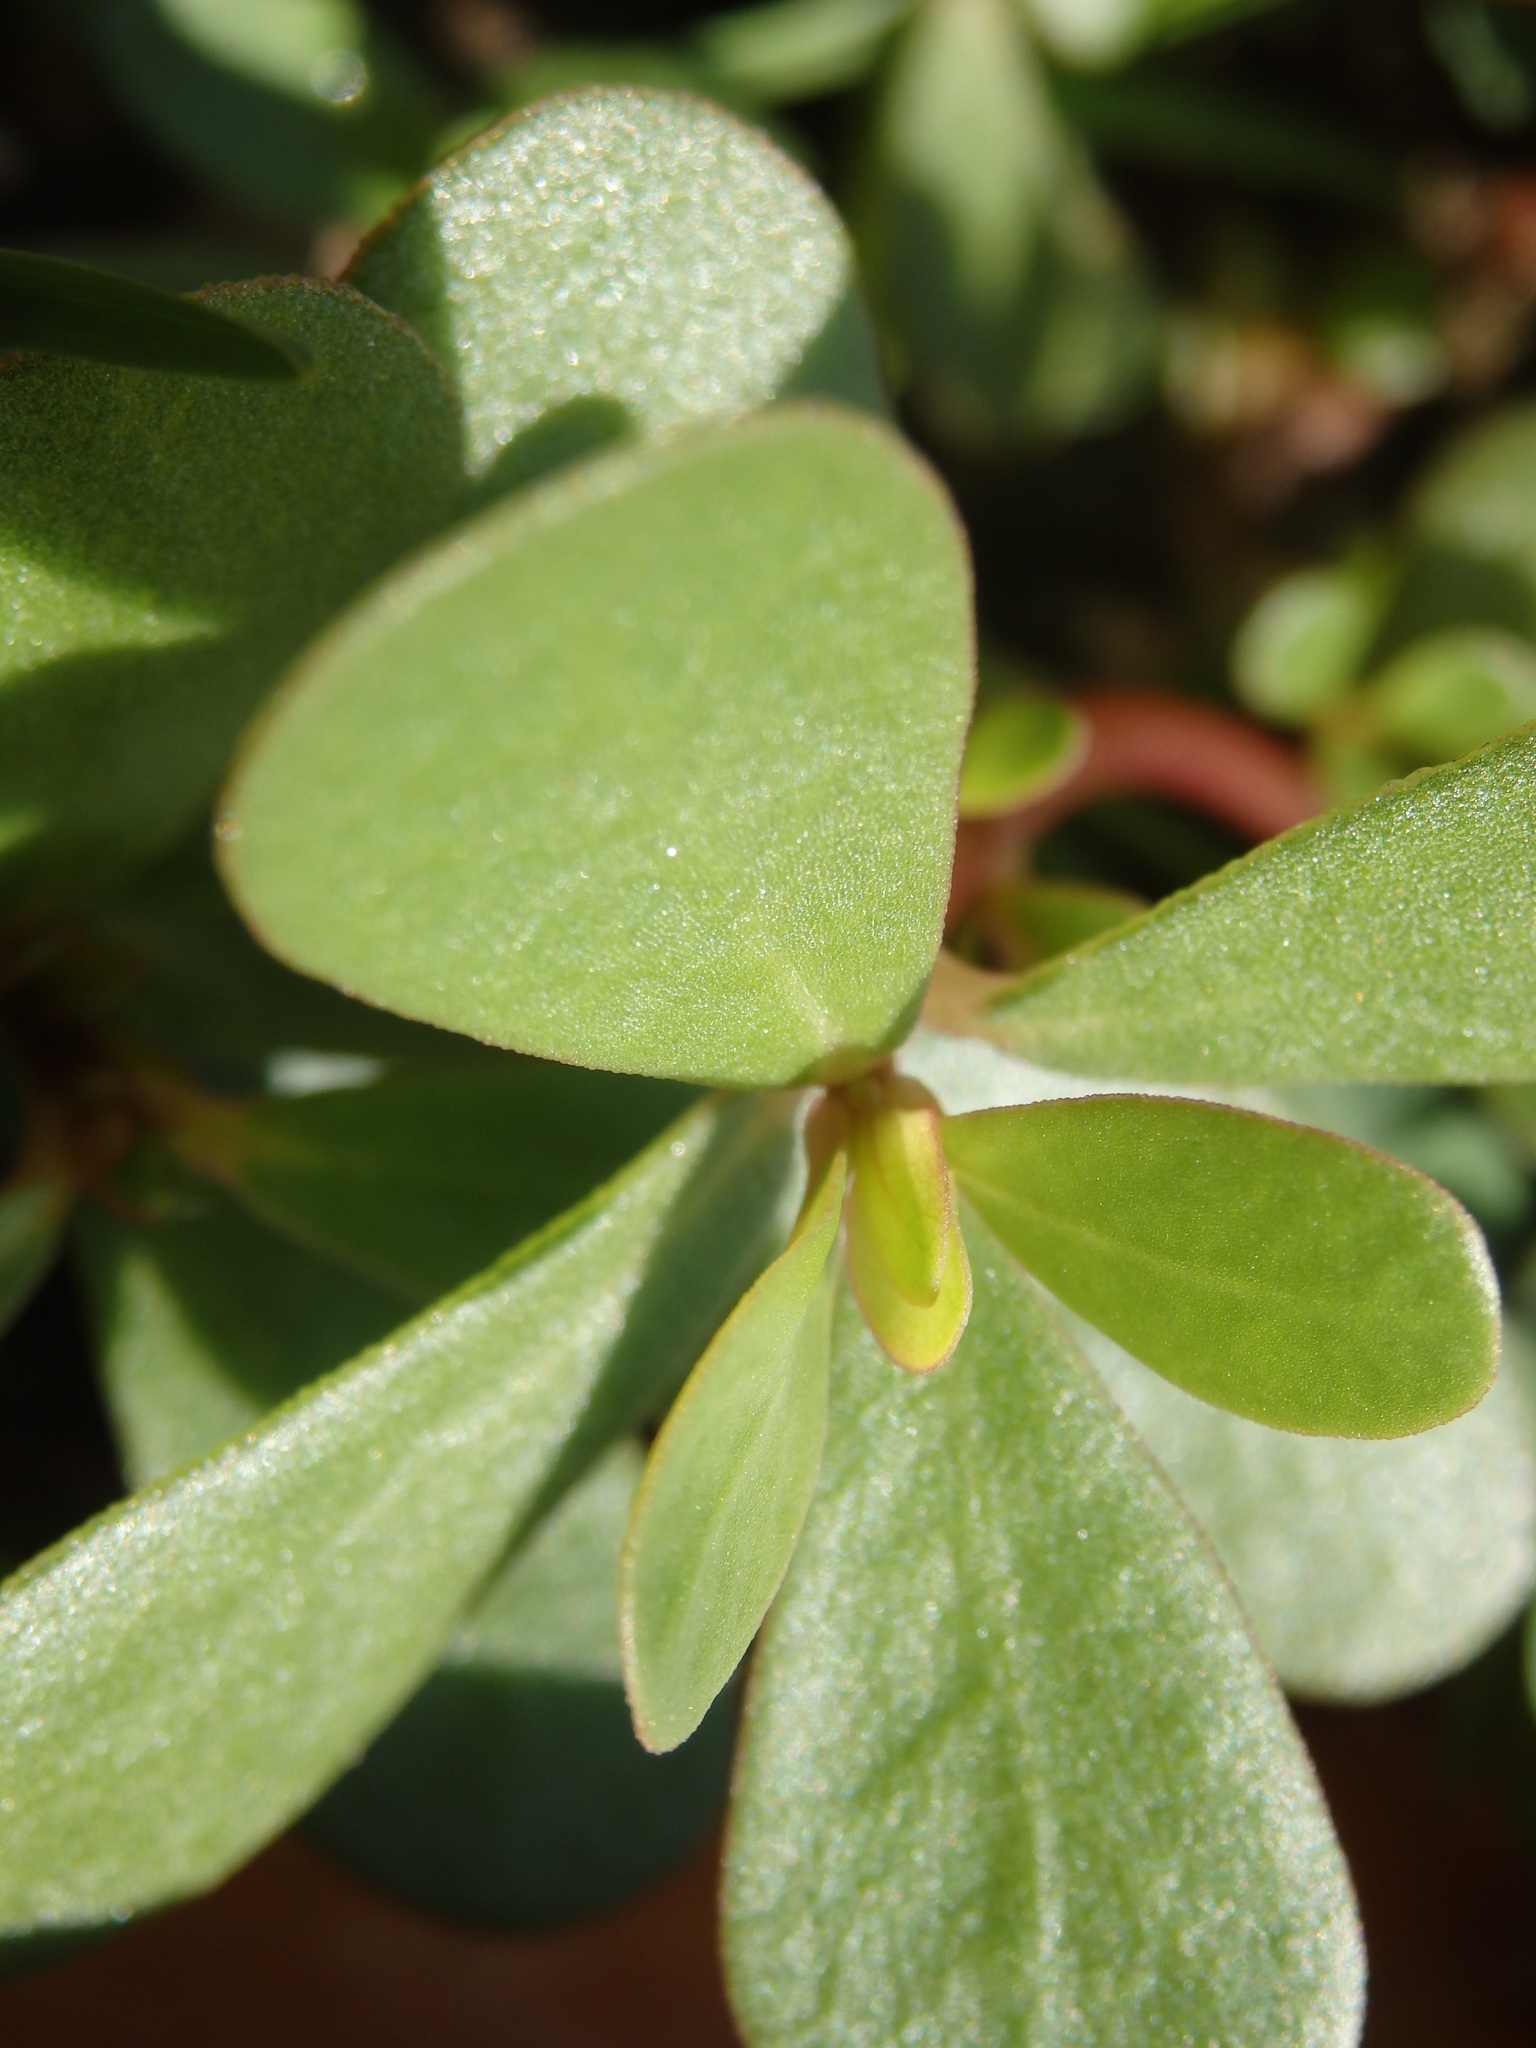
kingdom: Plantae
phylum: Tracheophyta
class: Magnoliopsida
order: Caryophyllales
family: Portulacaceae
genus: Portulaca
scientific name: Portulaca oleracea
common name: Common purslane
